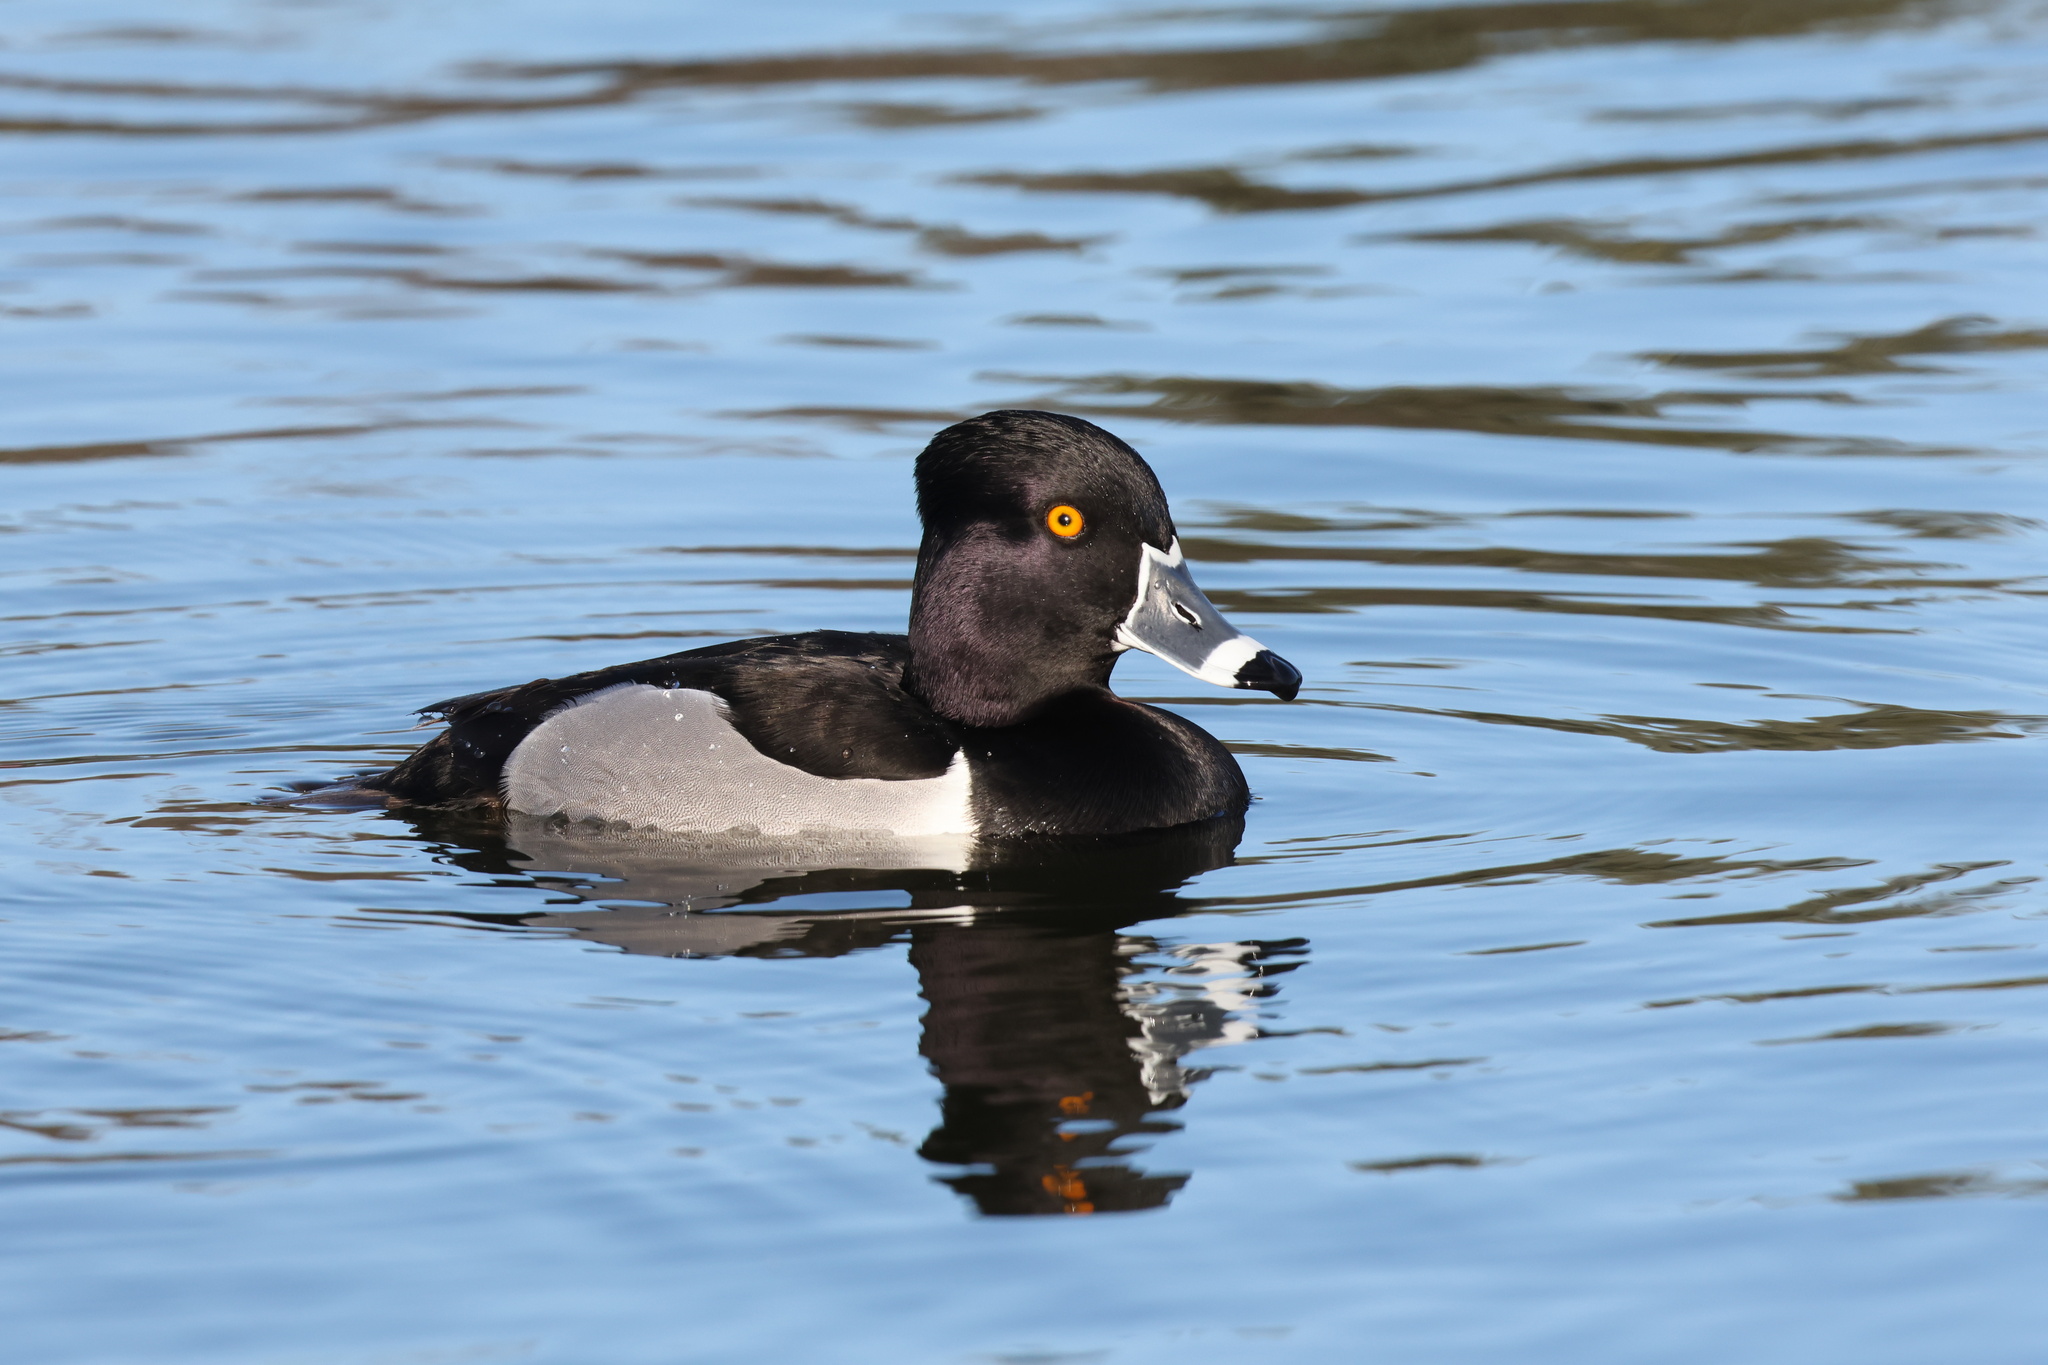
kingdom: Animalia
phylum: Chordata
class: Aves
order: Anseriformes
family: Anatidae
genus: Aythya
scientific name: Aythya collaris
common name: Ring-necked duck
